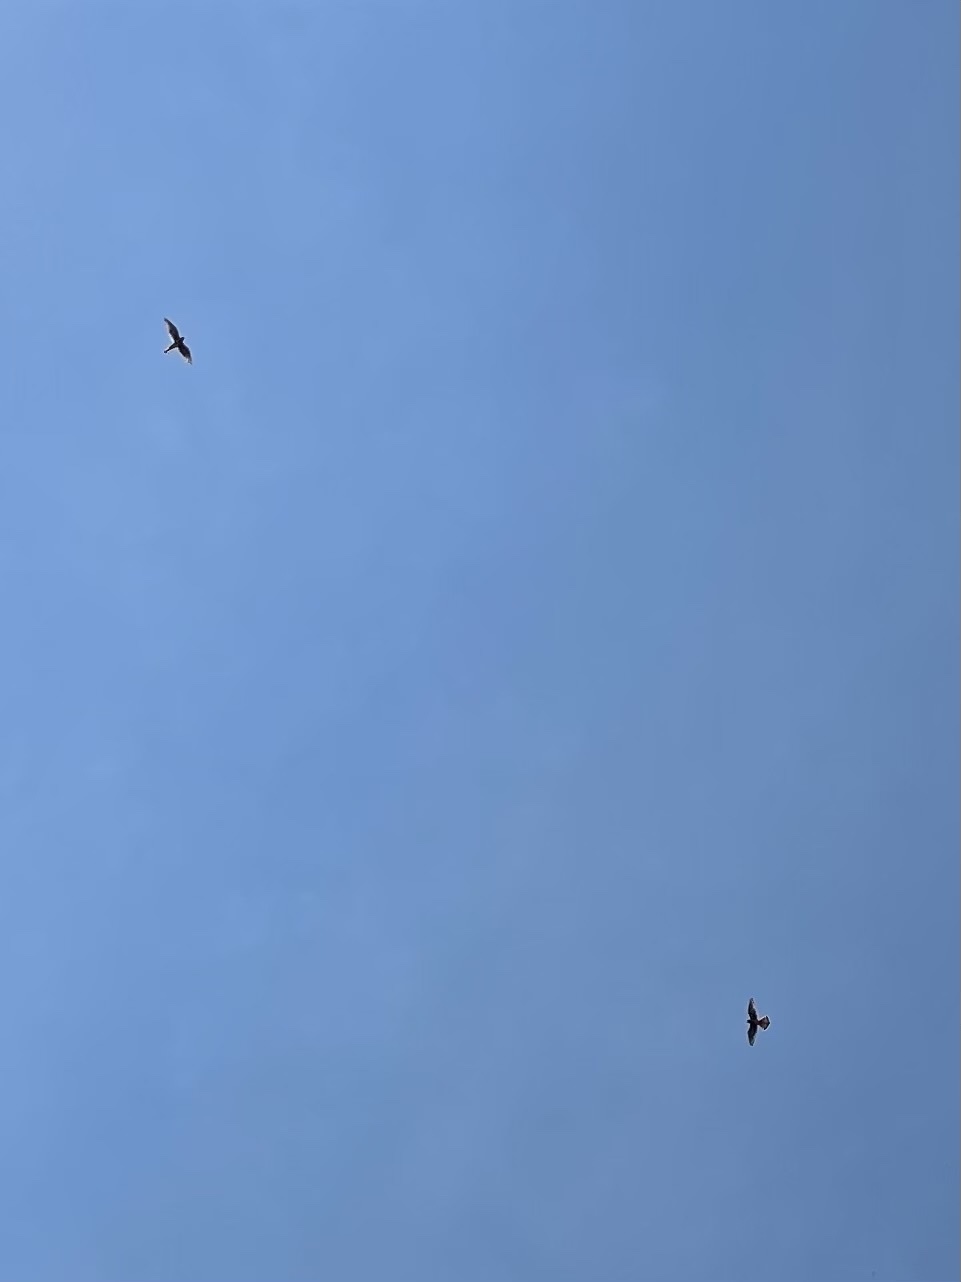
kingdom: Animalia
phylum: Chordata
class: Aves
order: Falconiformes
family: Falconidae
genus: Falco
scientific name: Falco sparverius
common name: American kestrel
